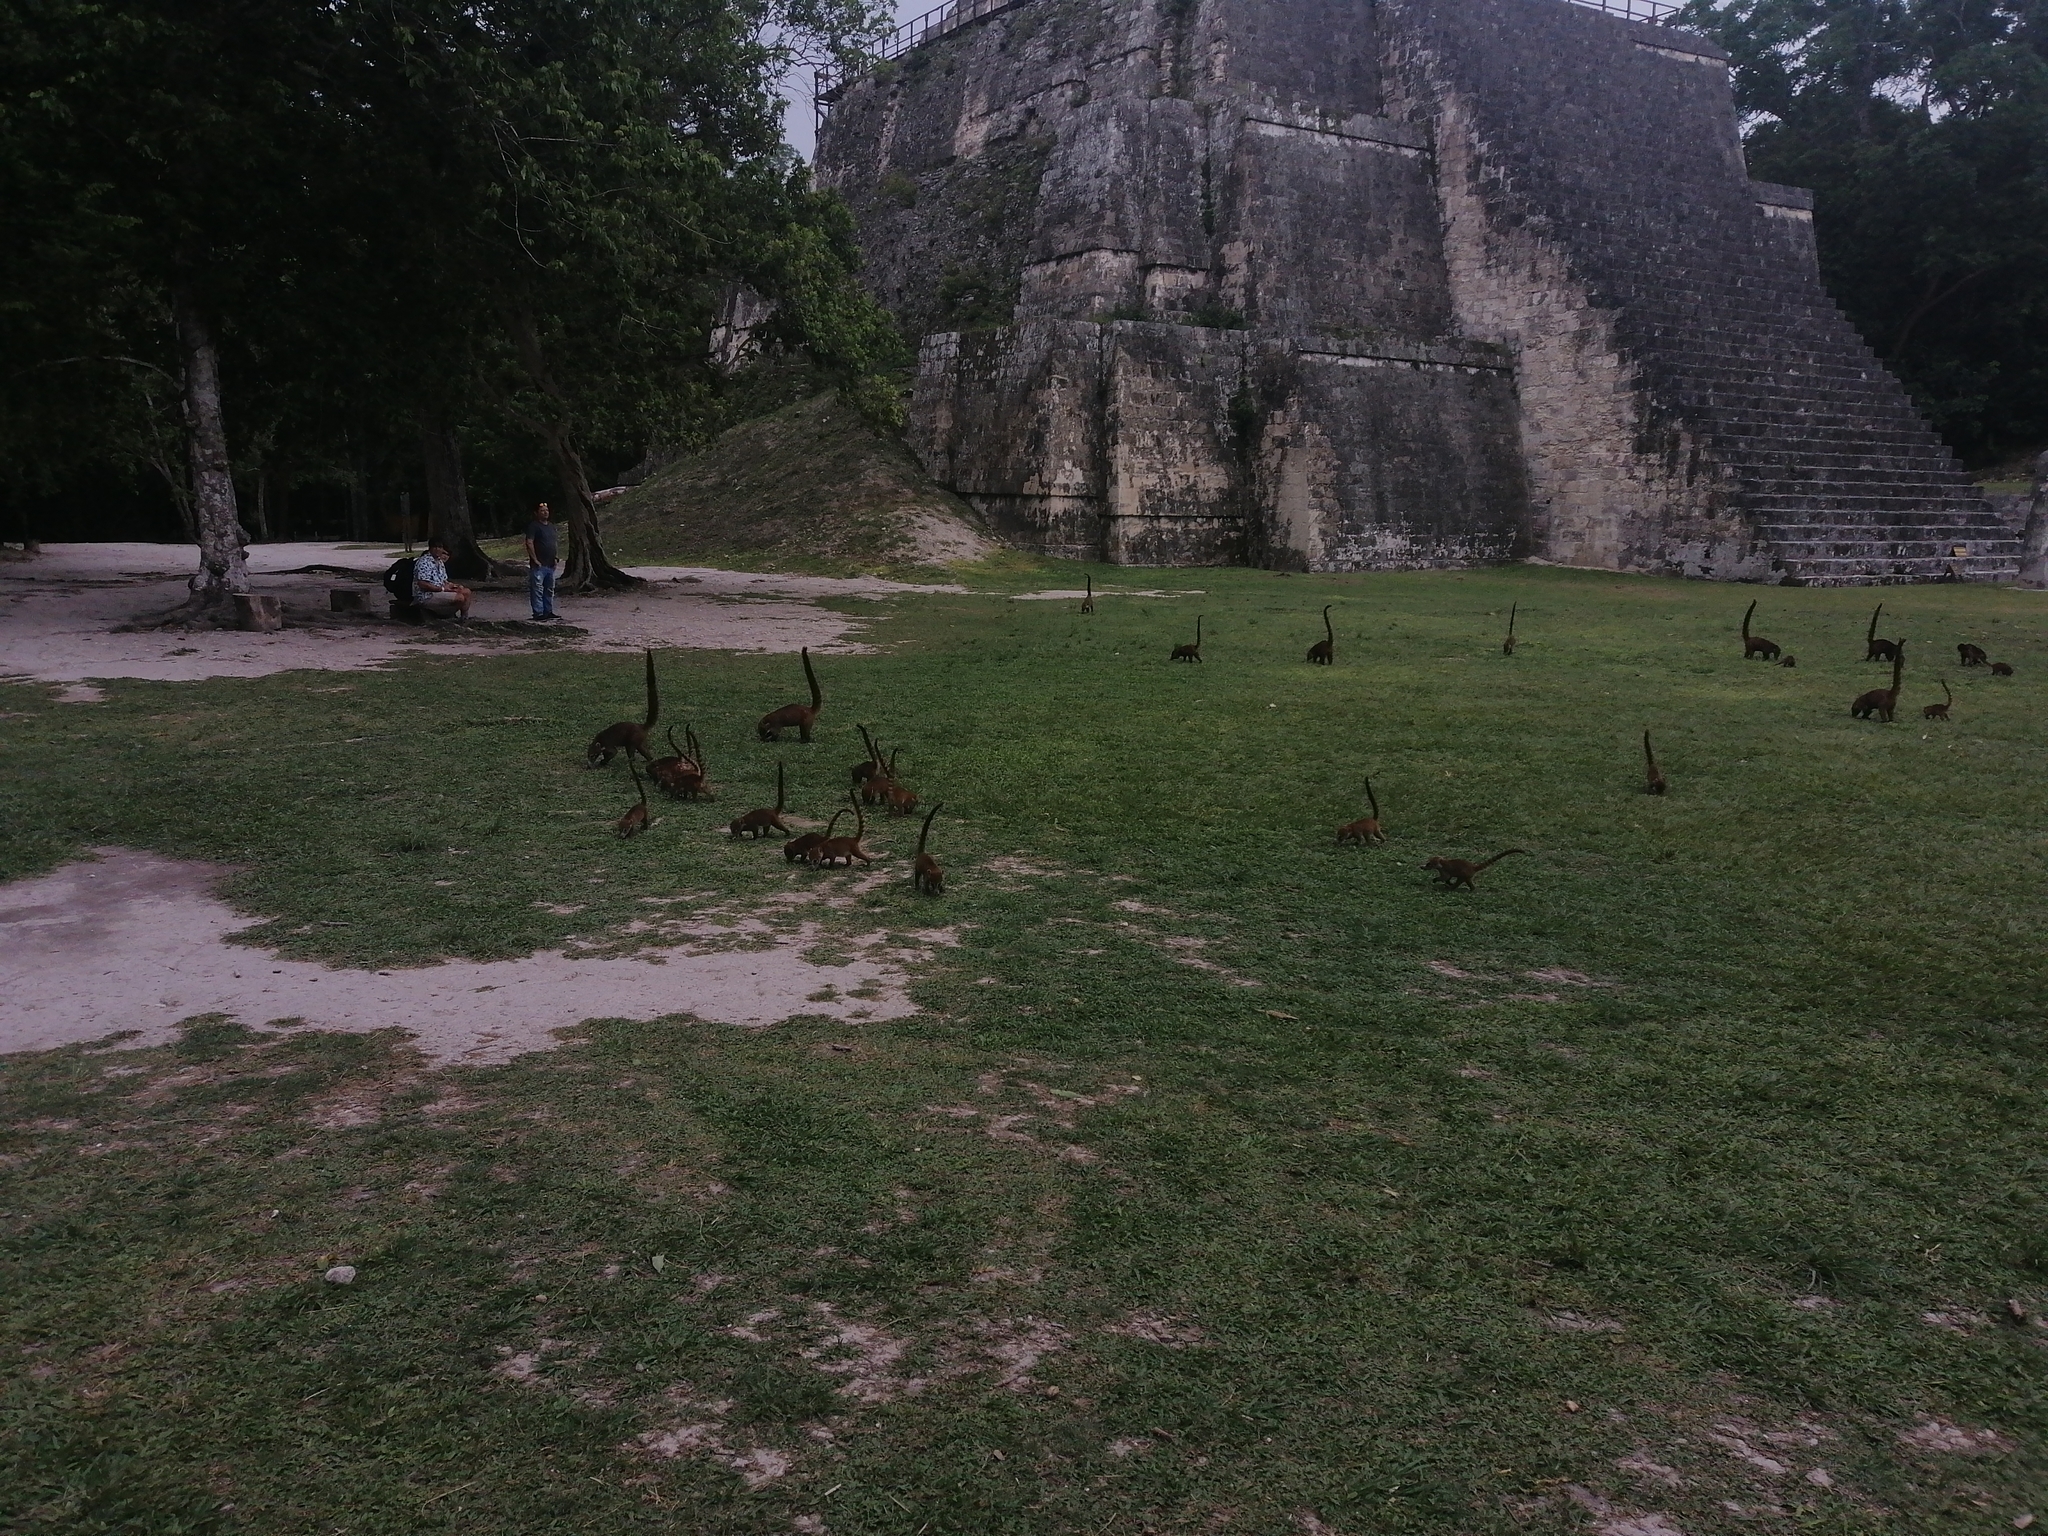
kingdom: Animalia
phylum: Chordata
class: Mammalia
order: Carnivora
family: Procyonidae
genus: Nasua
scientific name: Nasua narica
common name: White-nosed coati
